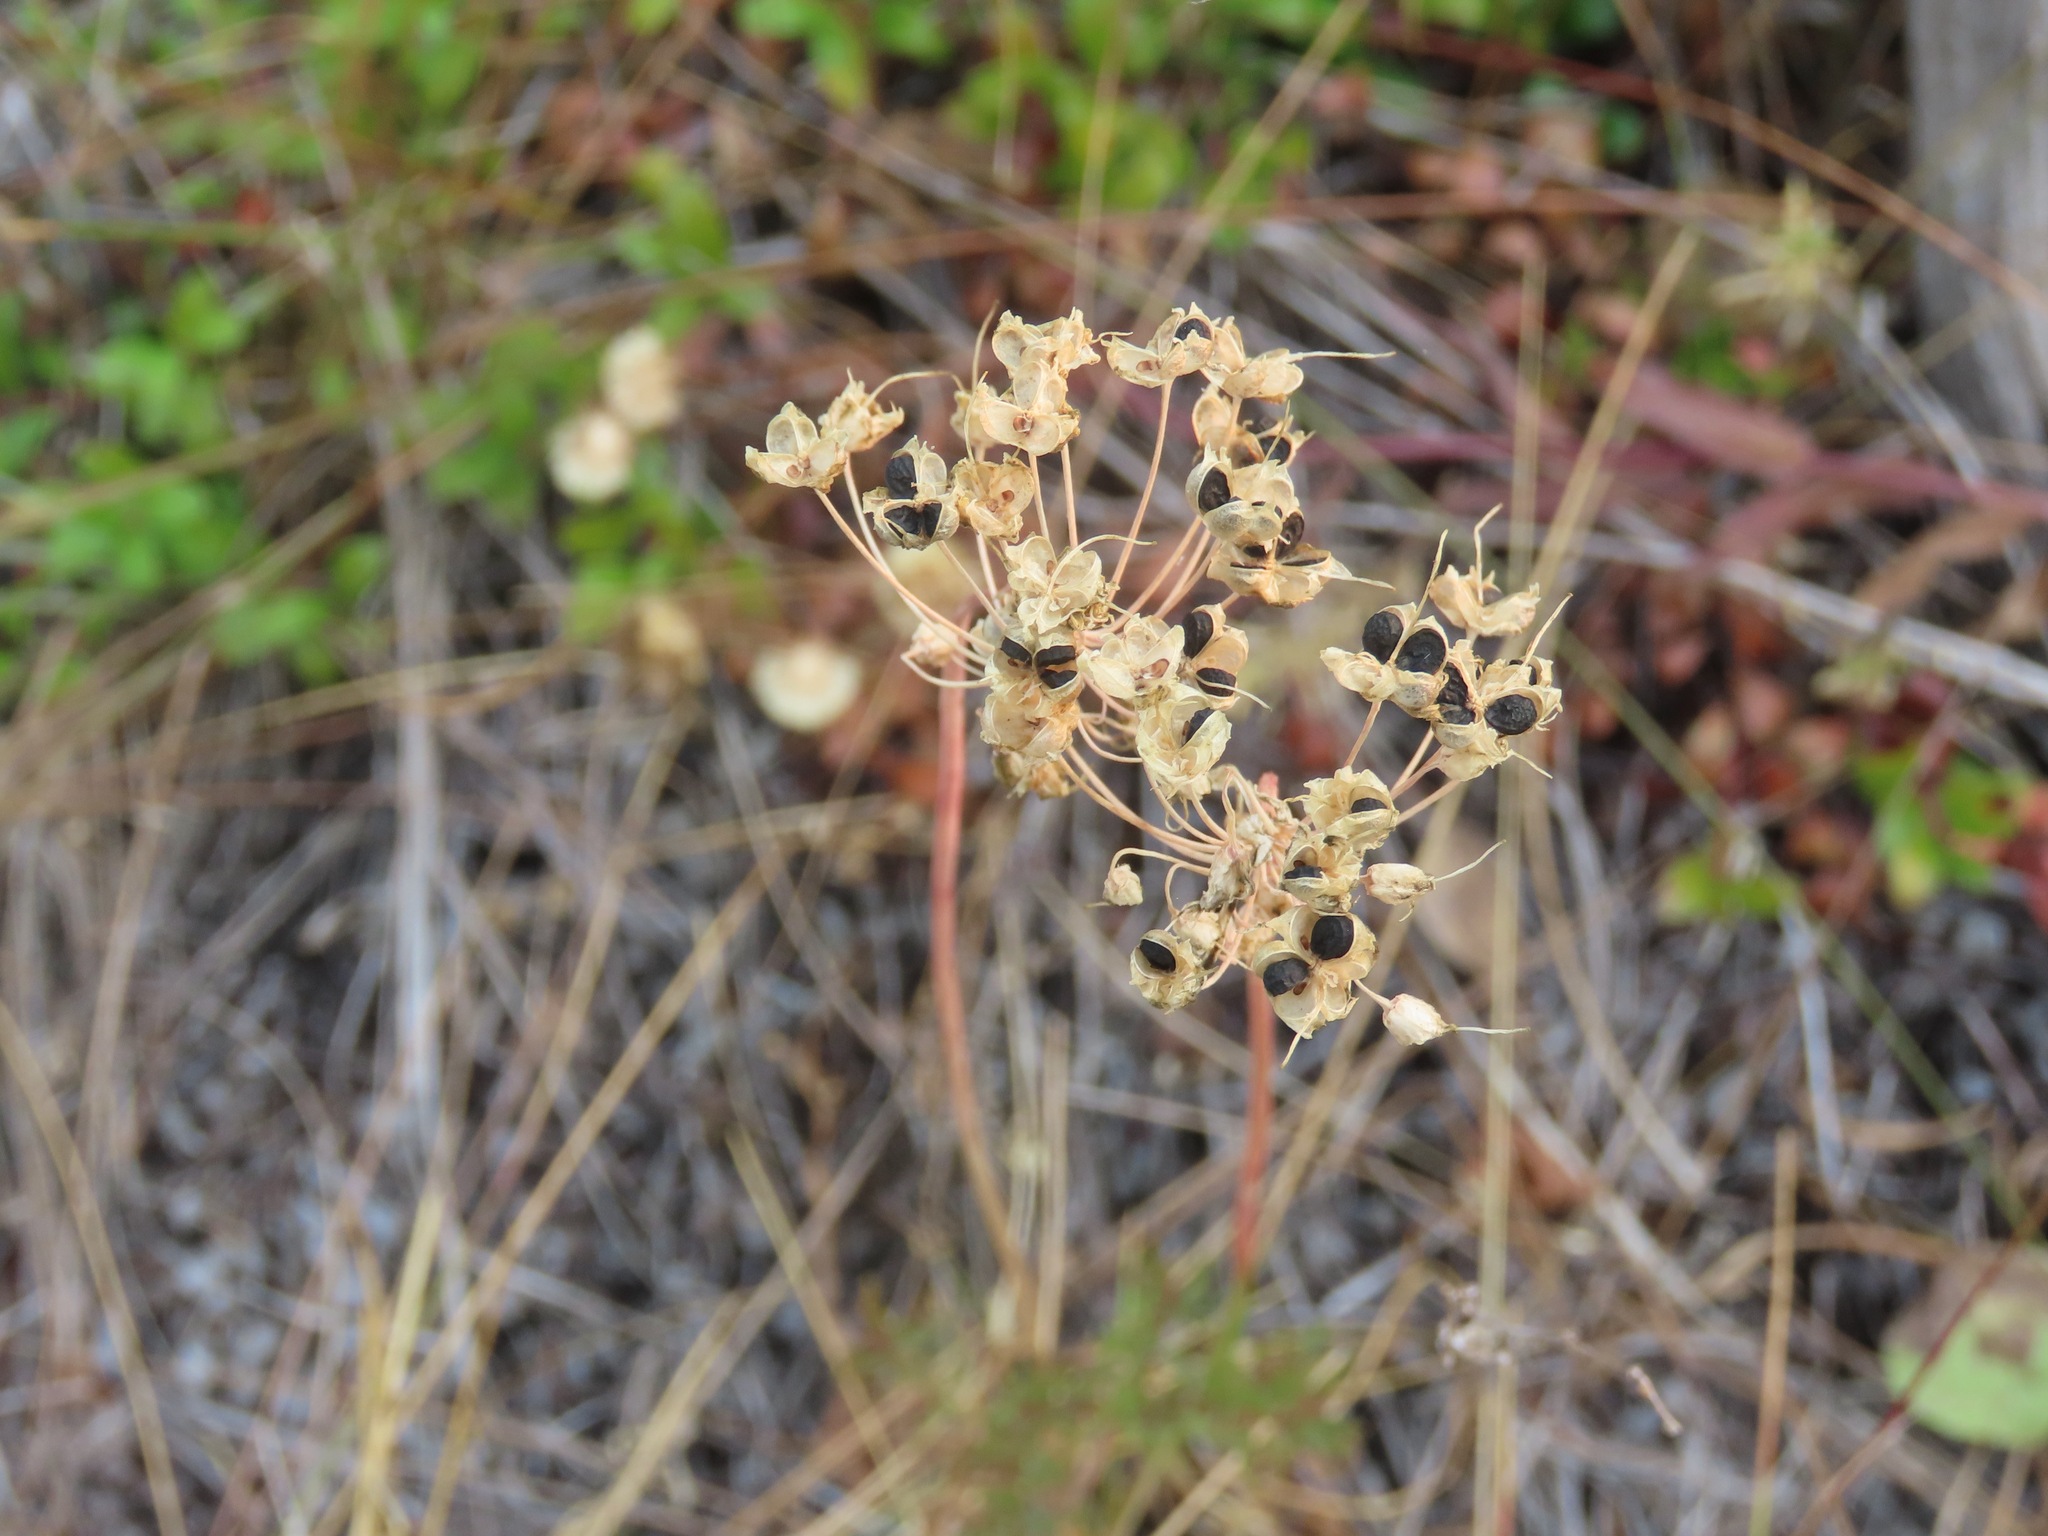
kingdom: Plantae
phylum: Tracheophyta
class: Liliopsida
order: Asparagales
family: Amaryllidaceae
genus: Allium
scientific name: Allium cernuum
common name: Nodding onion
